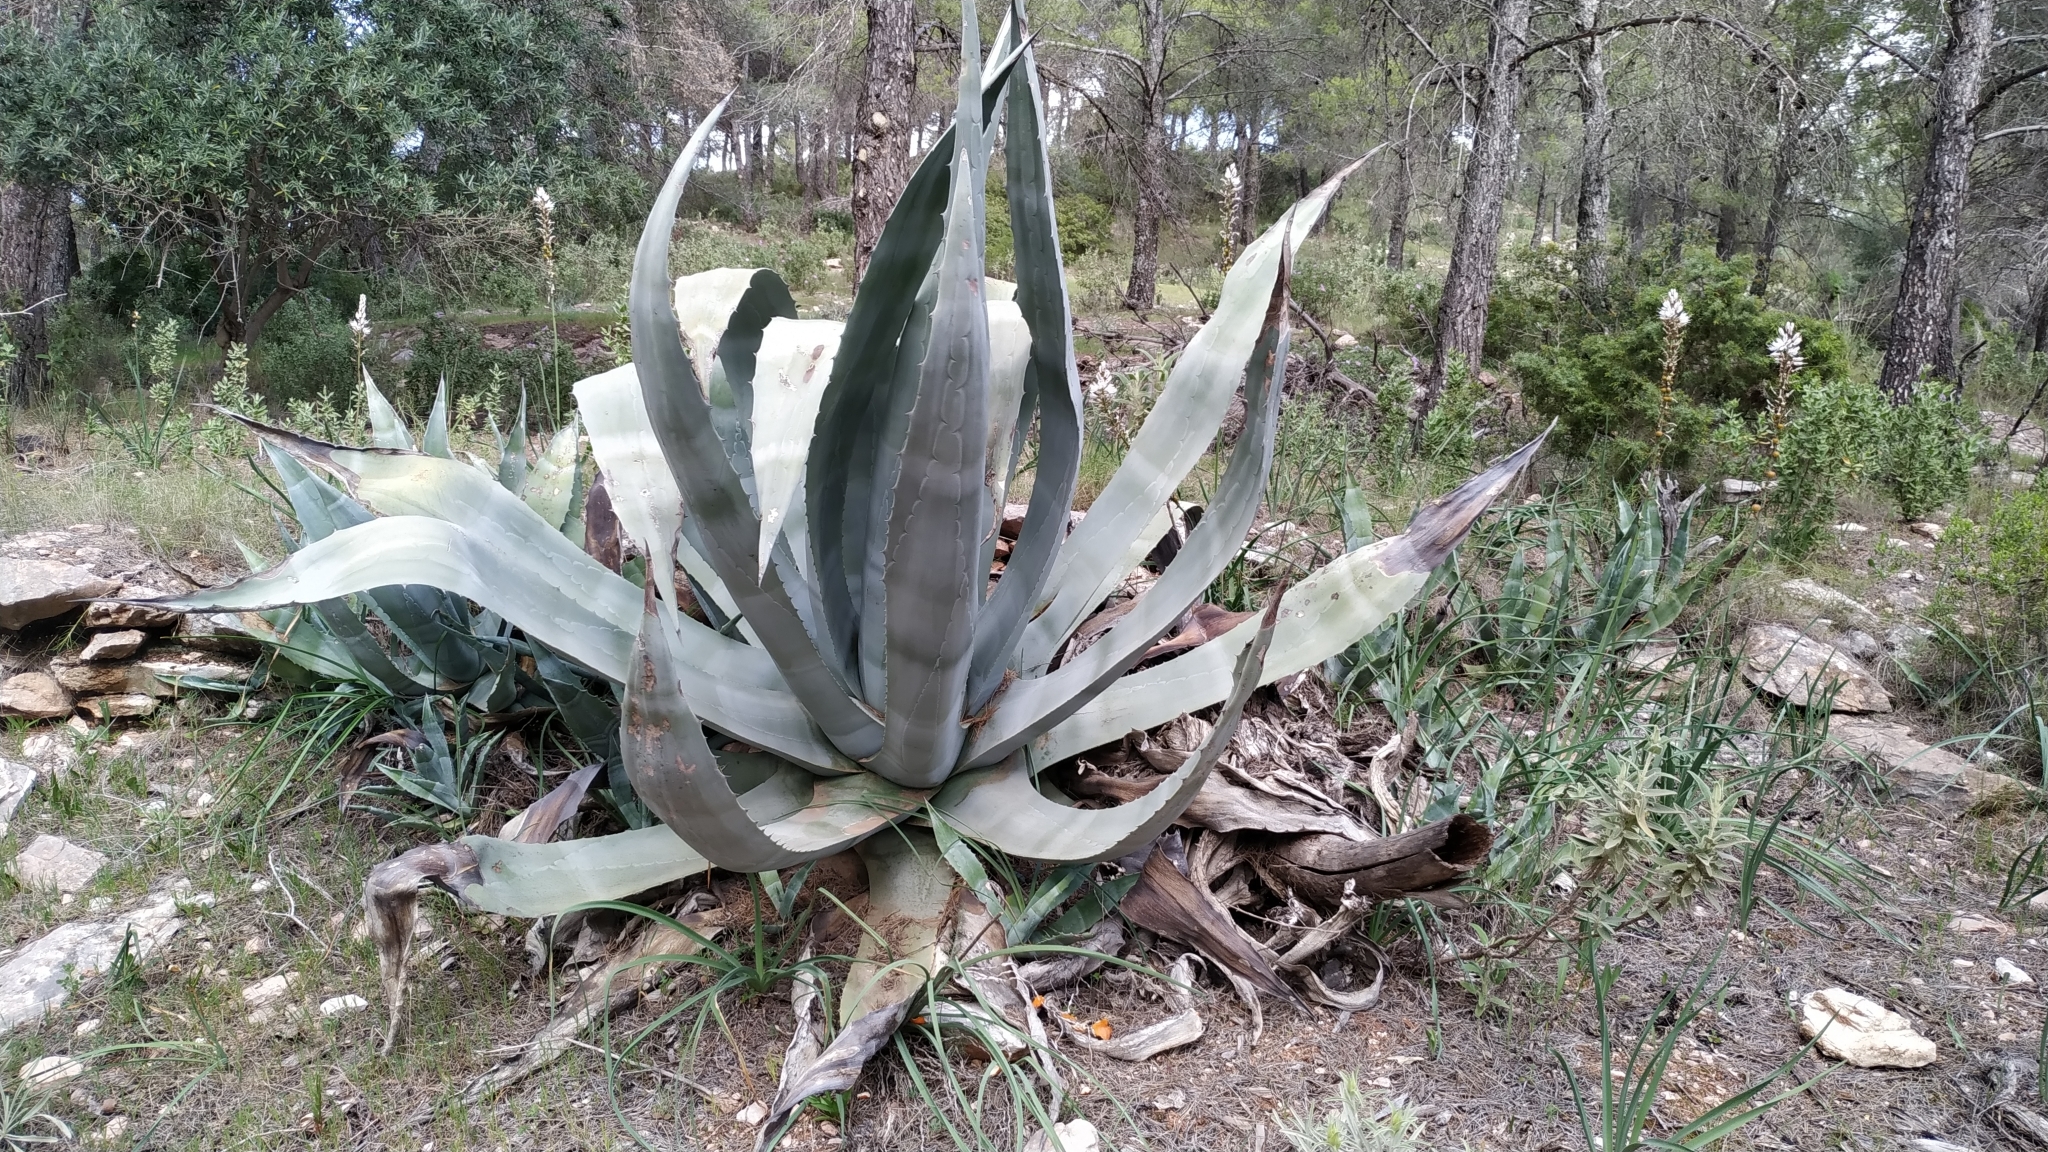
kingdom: Plantae
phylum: Tracheophyta
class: Liliopsida
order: Asparagales
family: Asparagaceae
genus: Agave
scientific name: Agave americana
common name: Centuryplant
